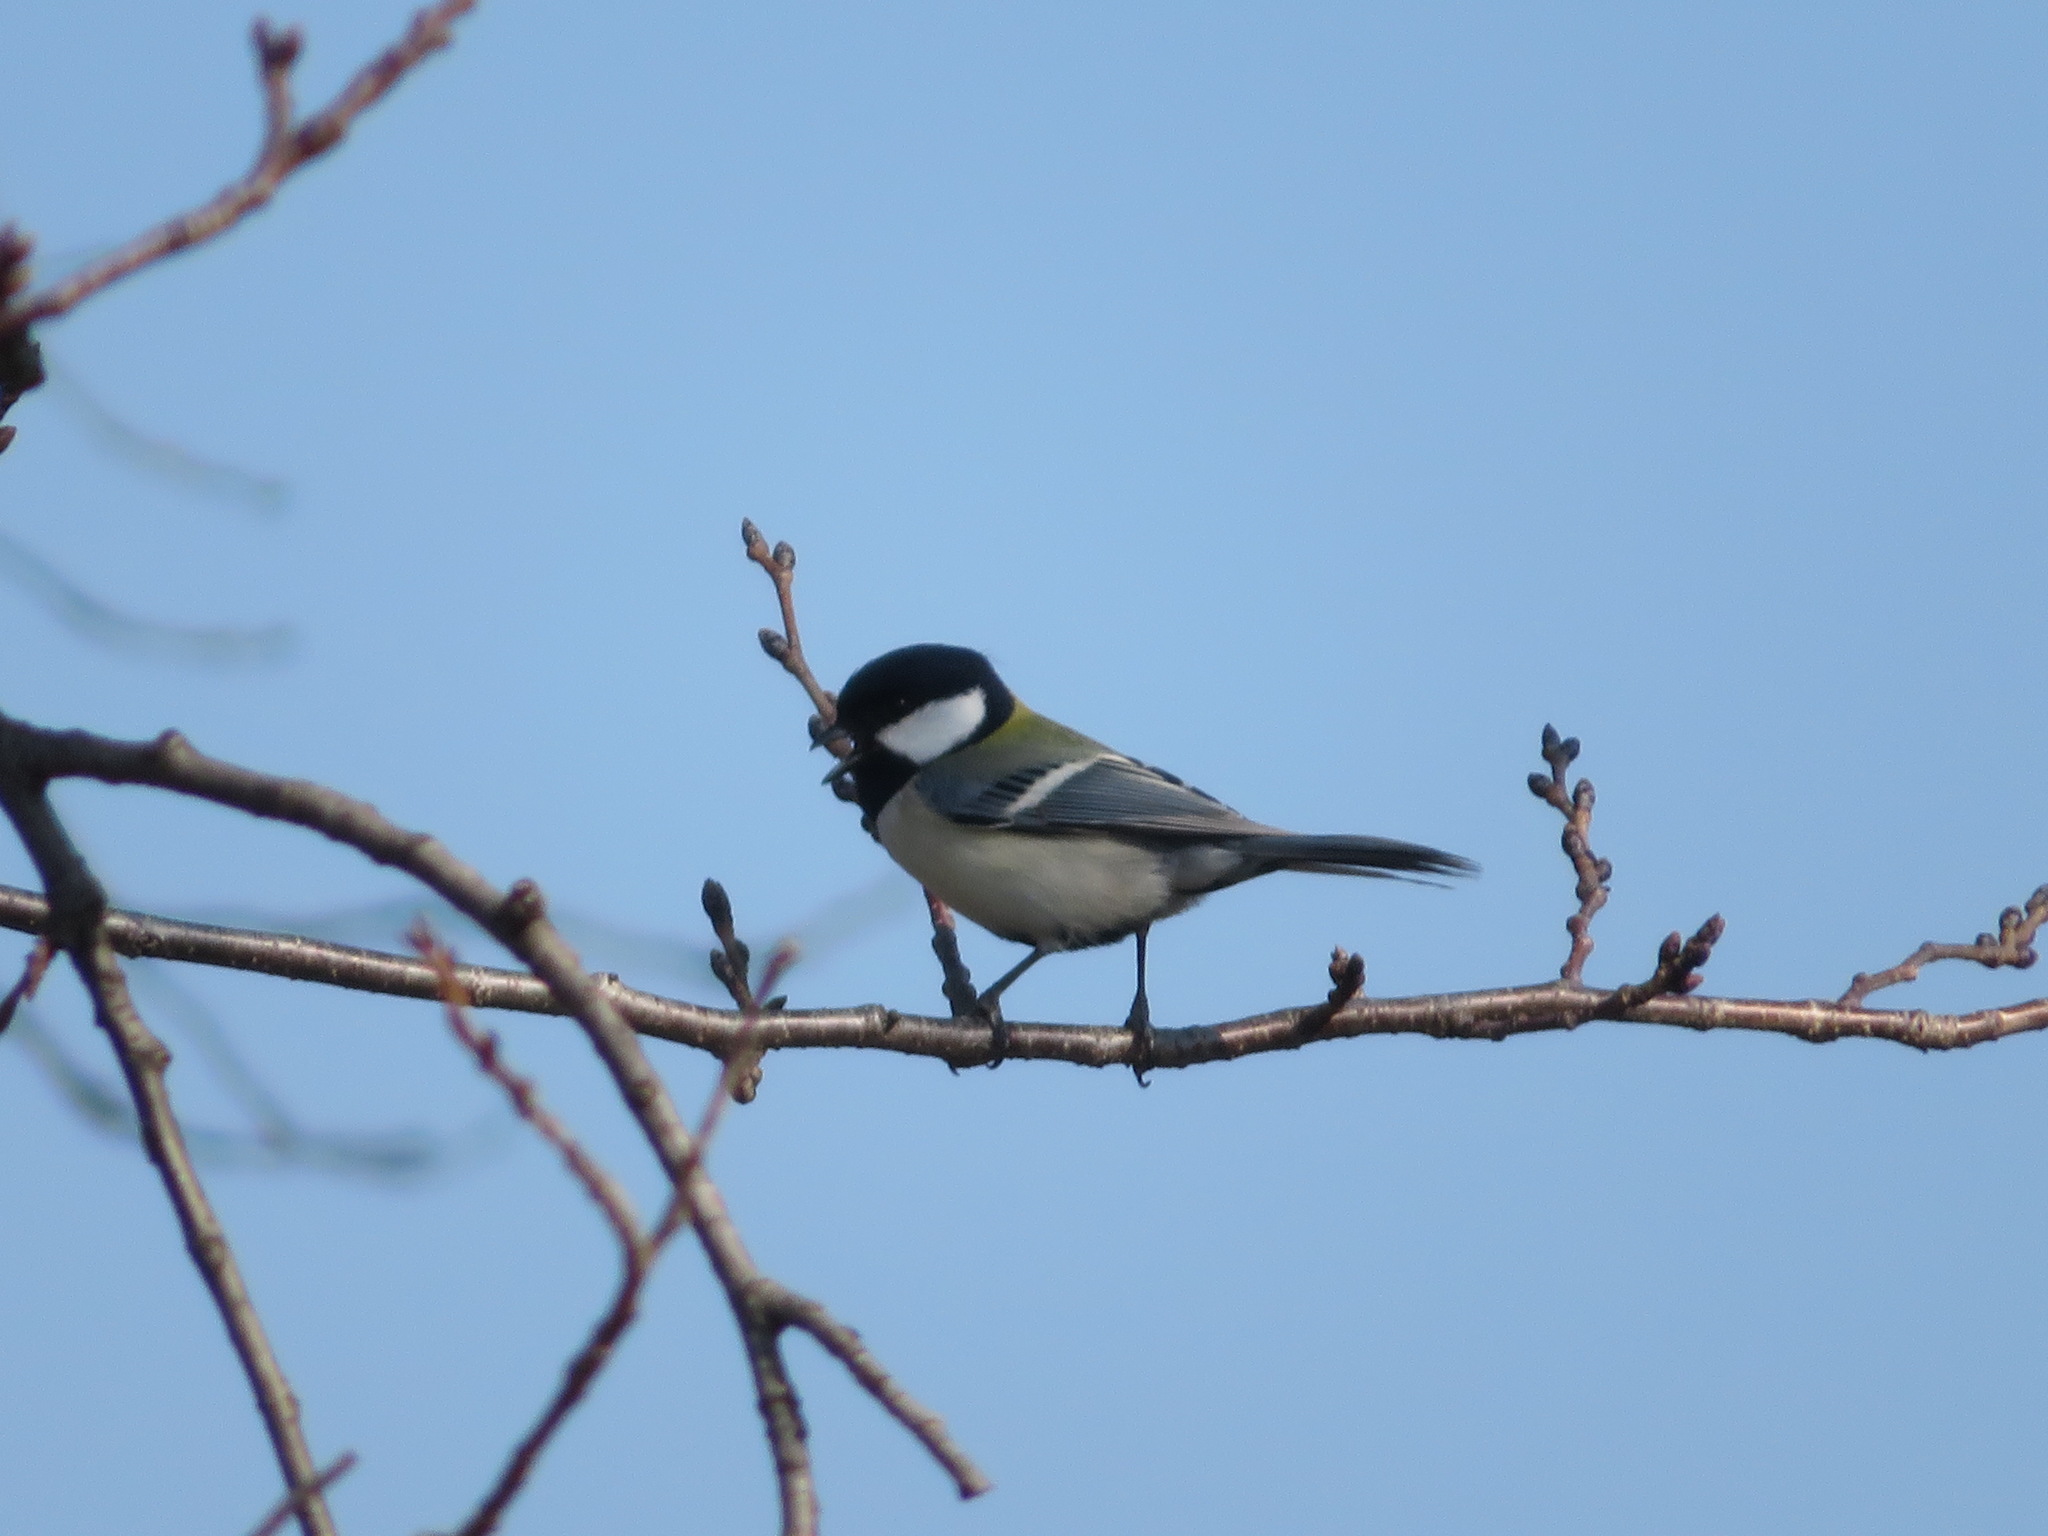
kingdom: Animalia
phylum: Chordata
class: Aves
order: Passeriformes
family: Paridae
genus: Parus
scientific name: Parus minor
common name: Japanese tit
